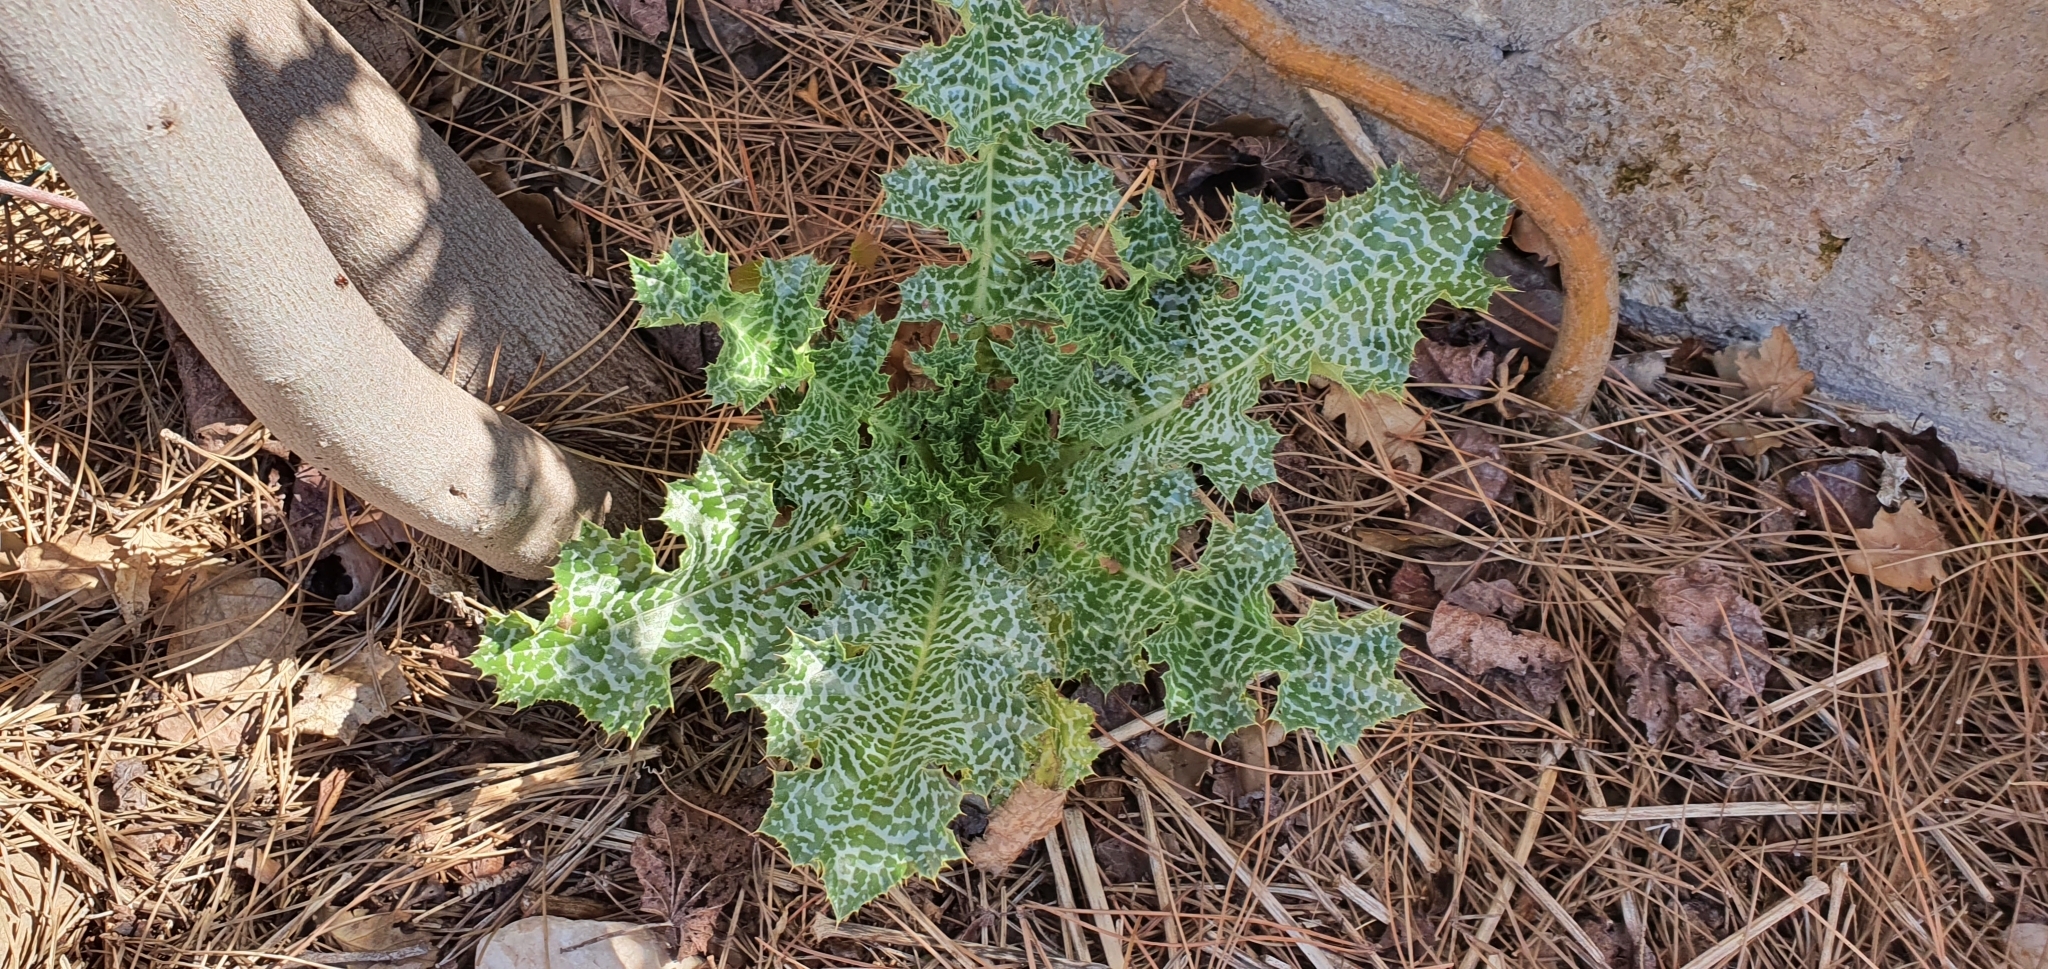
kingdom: Plantae
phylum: Tracheophyta
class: Magnoliopsida
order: Asterales
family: Asteraceae
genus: Silybum
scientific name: Silybum marianum
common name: Milk thistle
